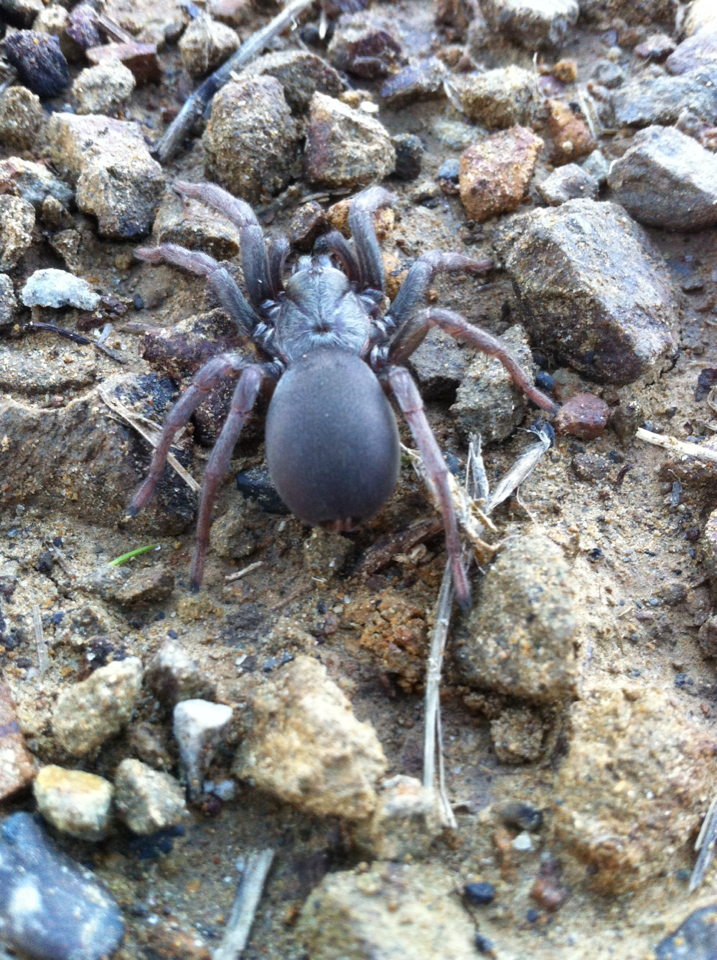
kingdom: Animalia
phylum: Arthropoda
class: Arachnida
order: Araneae
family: Nemesiidae
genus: Calisoga
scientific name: Calisoga longitarsis
